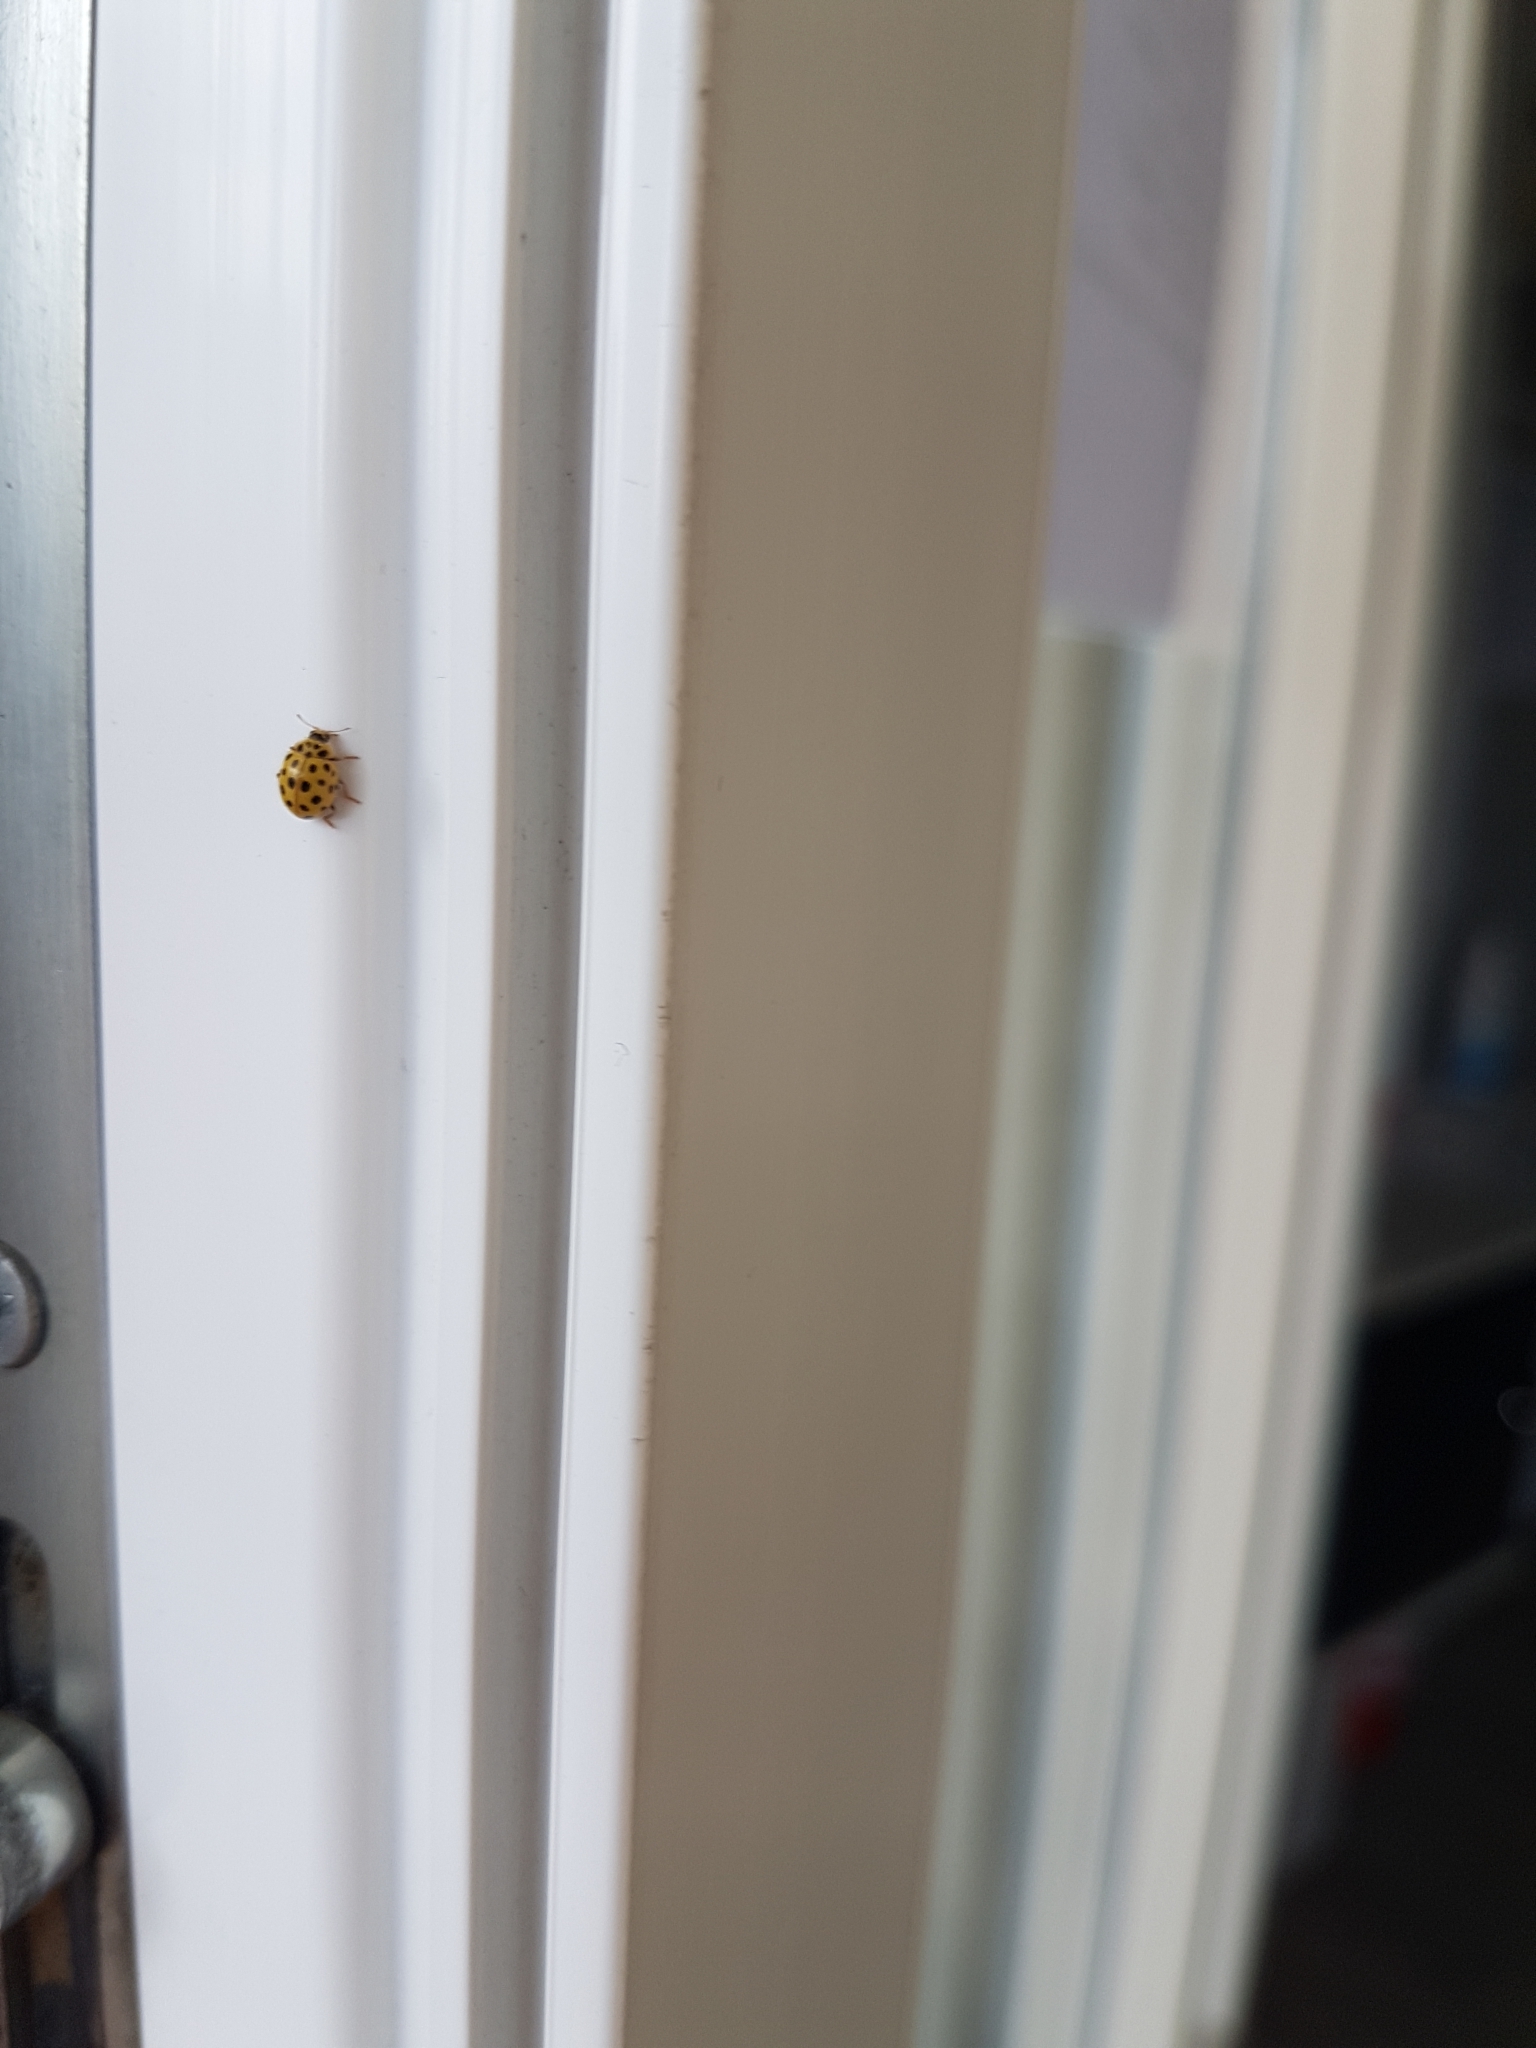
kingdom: Animalia
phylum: Arthropoda
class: Insecta
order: Coleoptera
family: Coccinellidae
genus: Psyllobora
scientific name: Psyllobora vigintiduopunctata
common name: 22-spot ladybird
